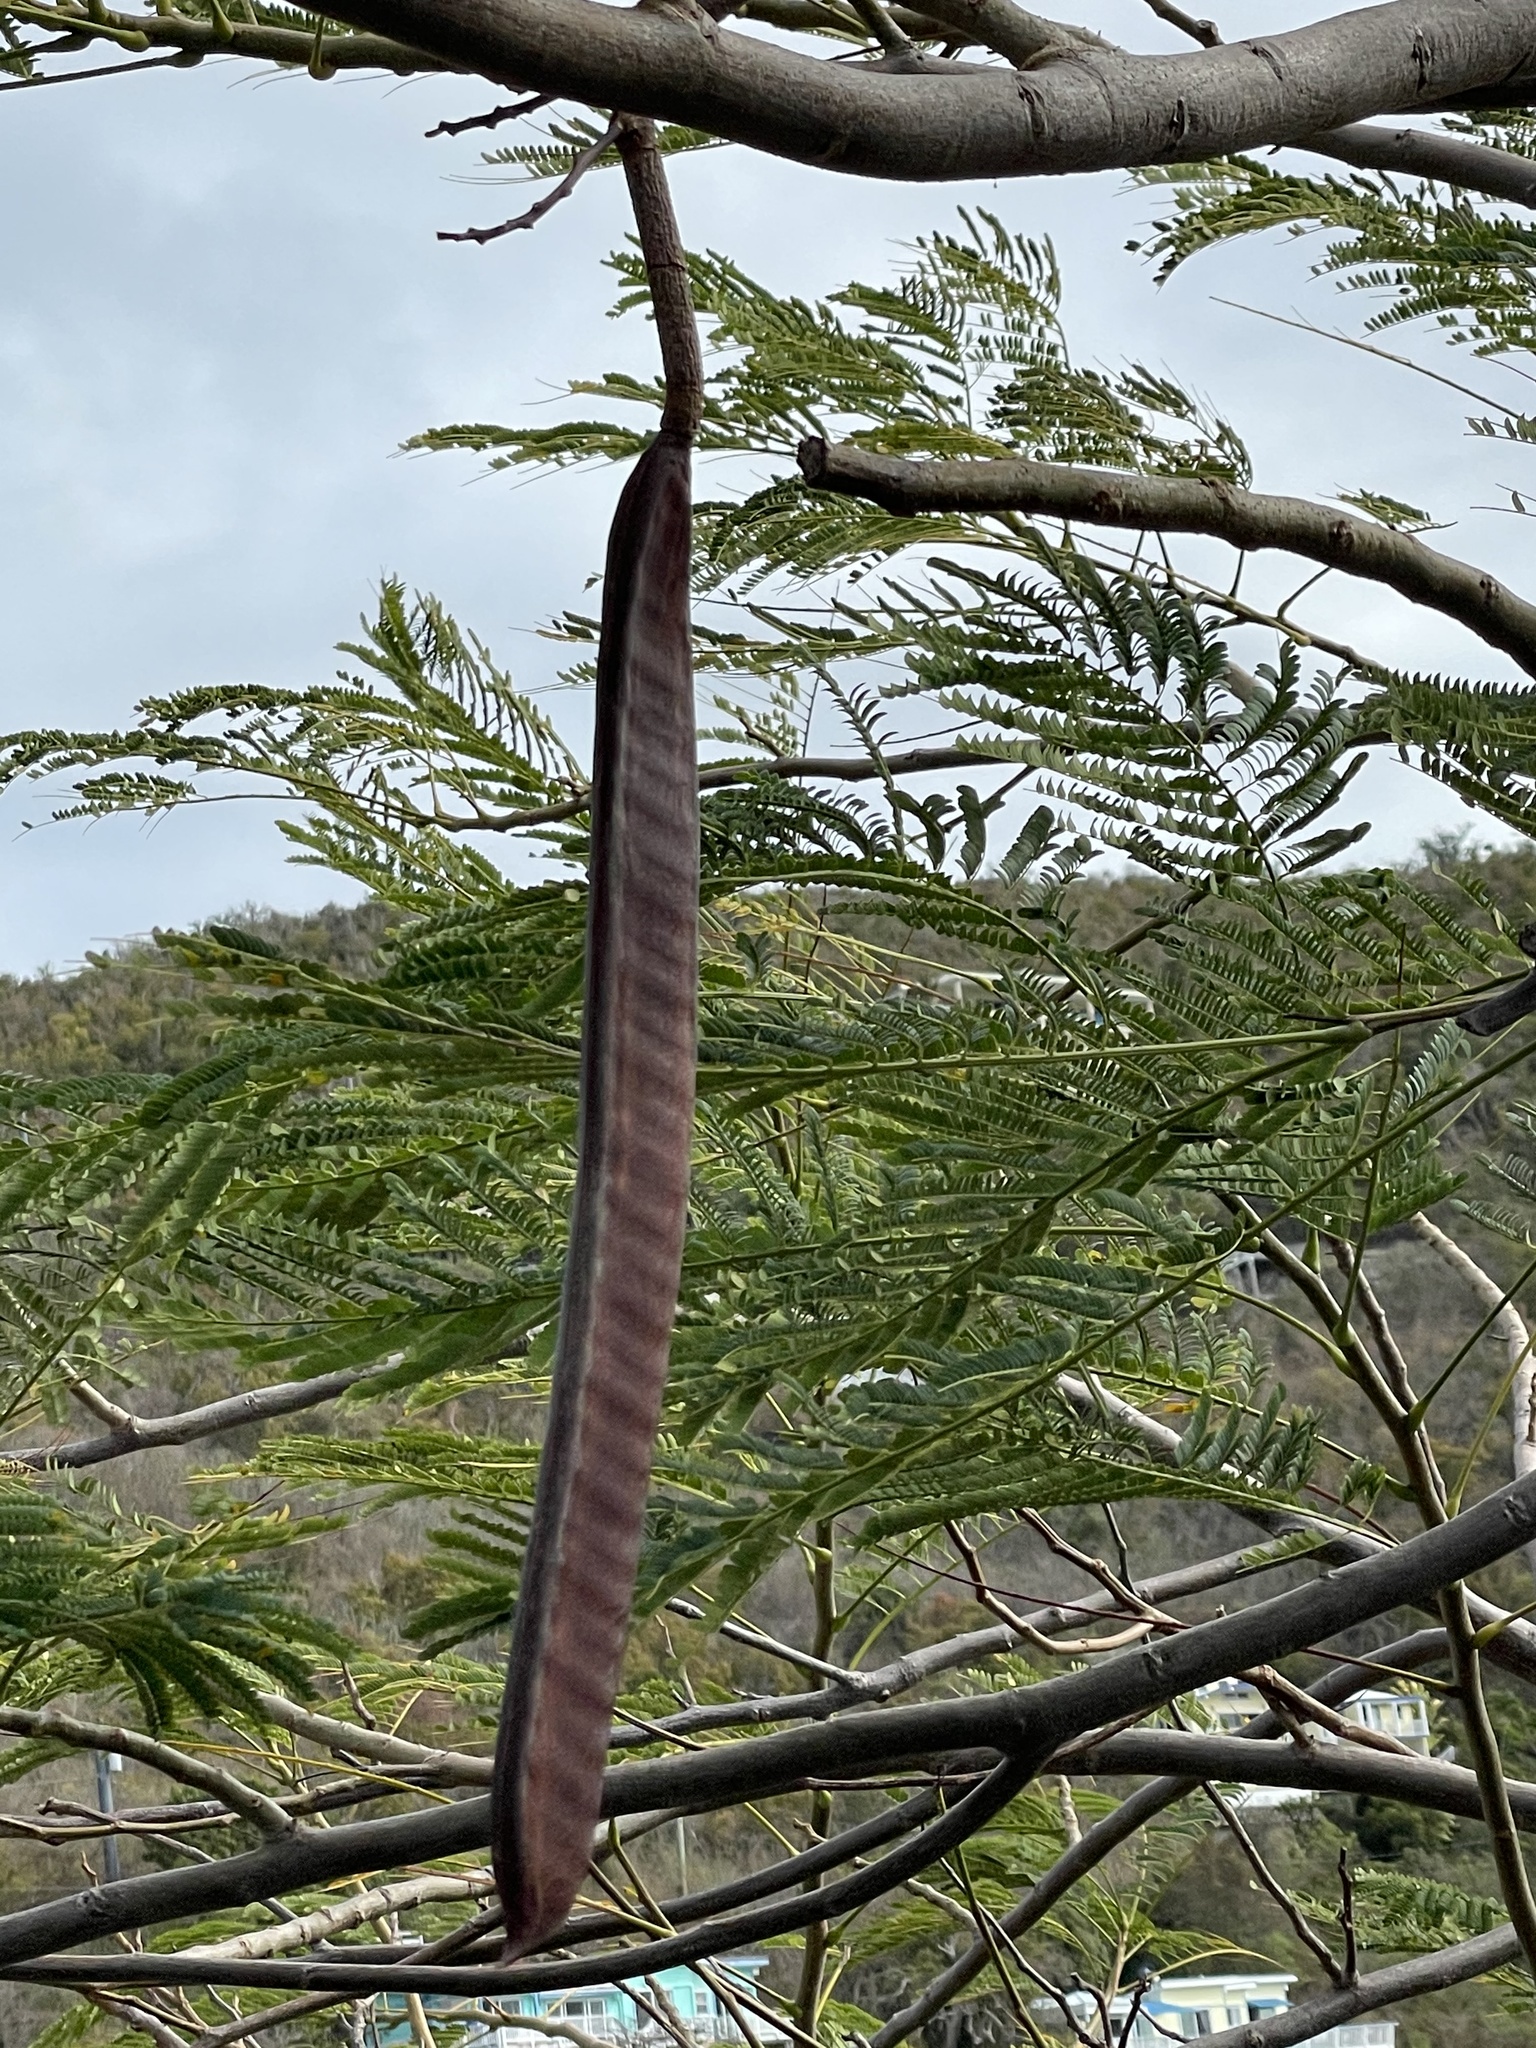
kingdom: Plantae
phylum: Tracheophyta
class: Magnoliopsida
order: Fabales
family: Fabaceae
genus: Delonix
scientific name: Delonix regia
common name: Royal poinciana
